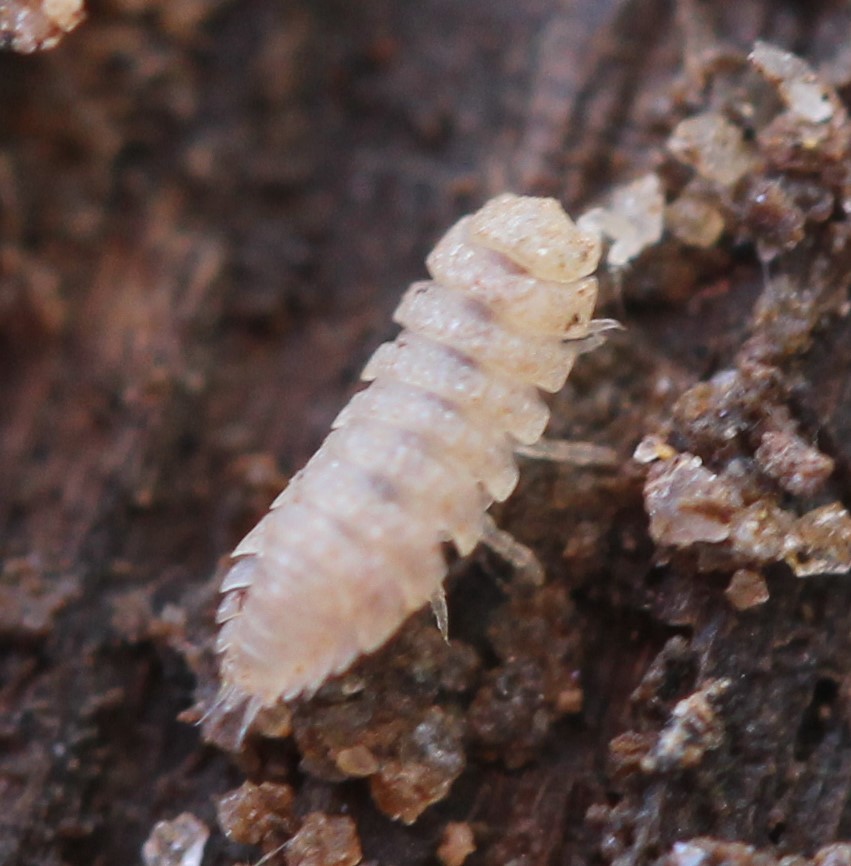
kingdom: Animalia
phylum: Arthropoda
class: Malacostraca
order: Isopoda
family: Trichoniscidae
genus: Haplophthalmus
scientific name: Haplophthalmus danicus
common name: Pillbug
